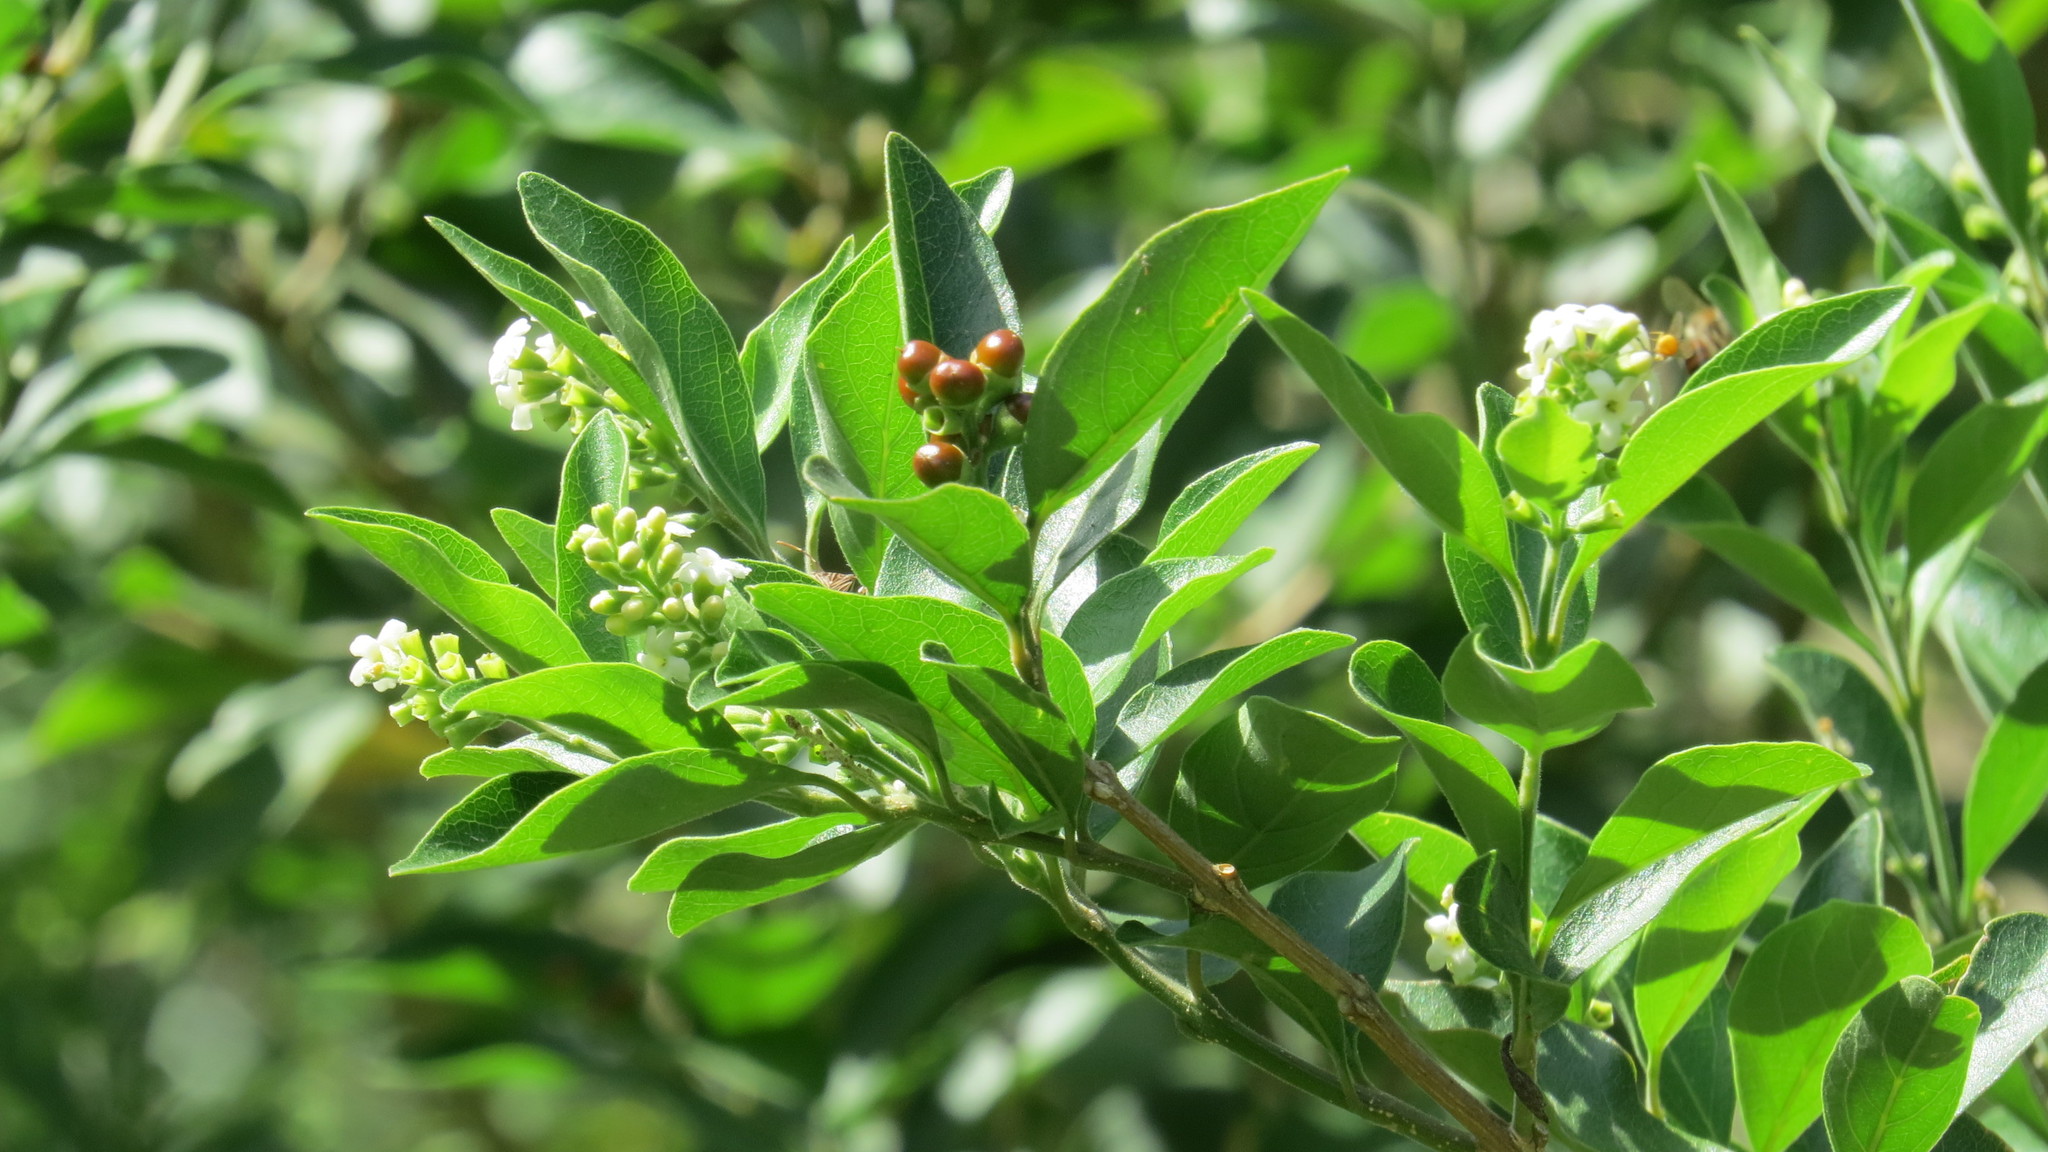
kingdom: Plantae
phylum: Tracheophyta
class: Magnoliopsida
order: Lamiales
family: Verbenaceae
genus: Citharexylum
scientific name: Citharexylum berlandieri
